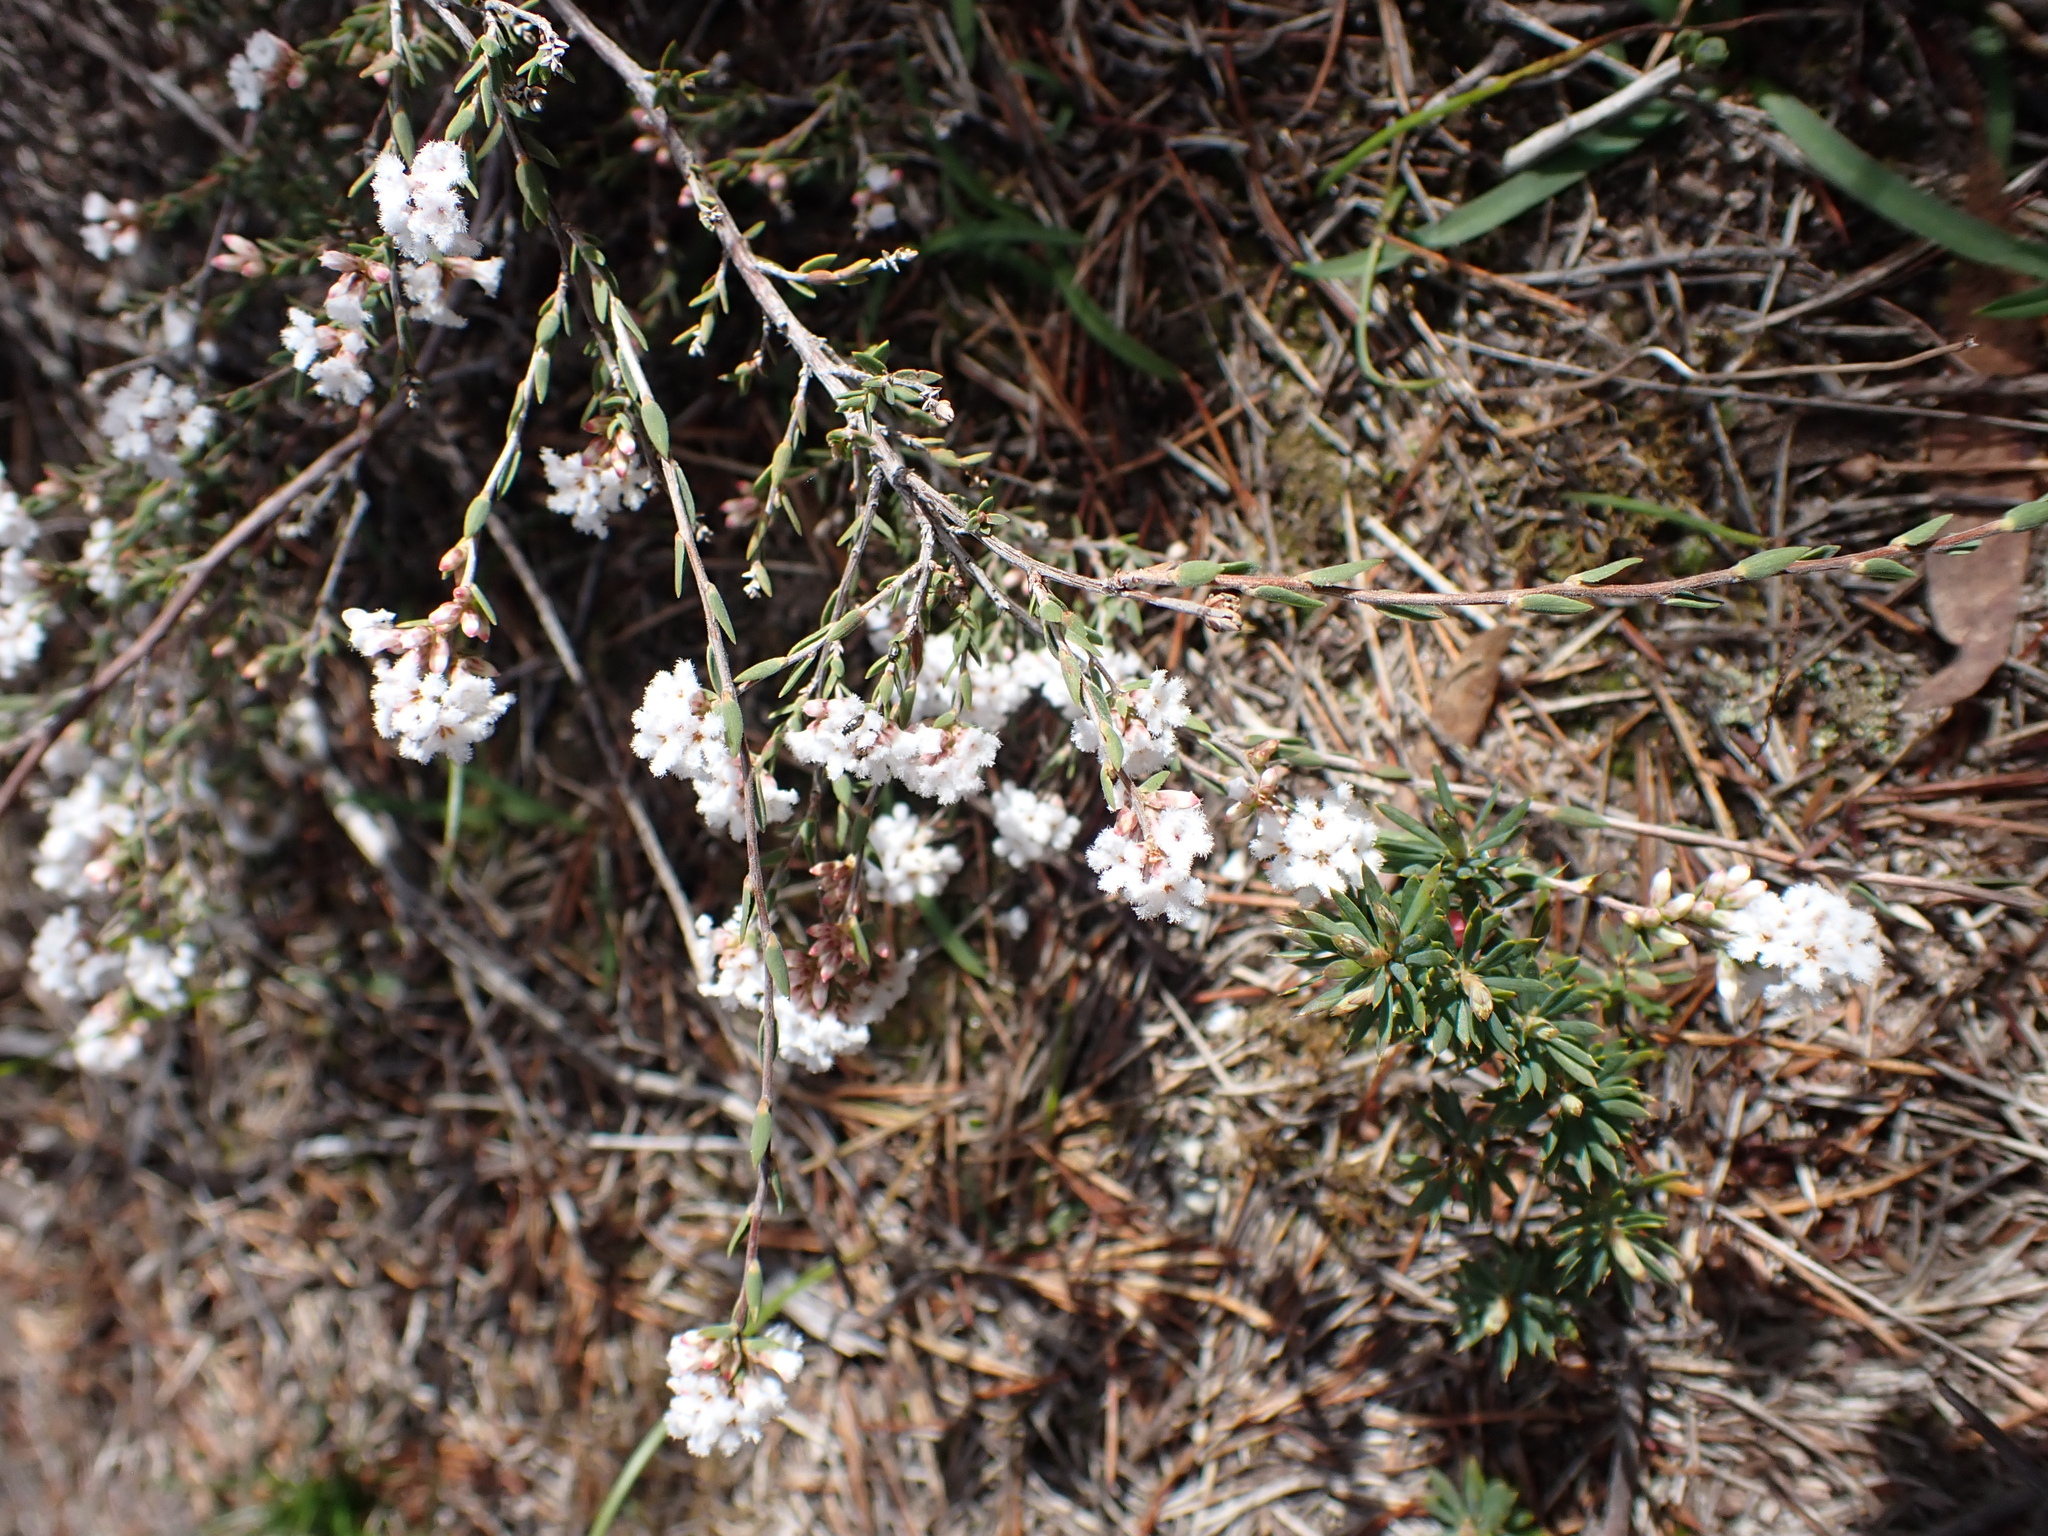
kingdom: Plantae
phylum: Tracheophyta
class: Magnoliopsida
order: Ericales
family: Ericaceae
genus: Leucopogon
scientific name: Leucopogon virgatus
